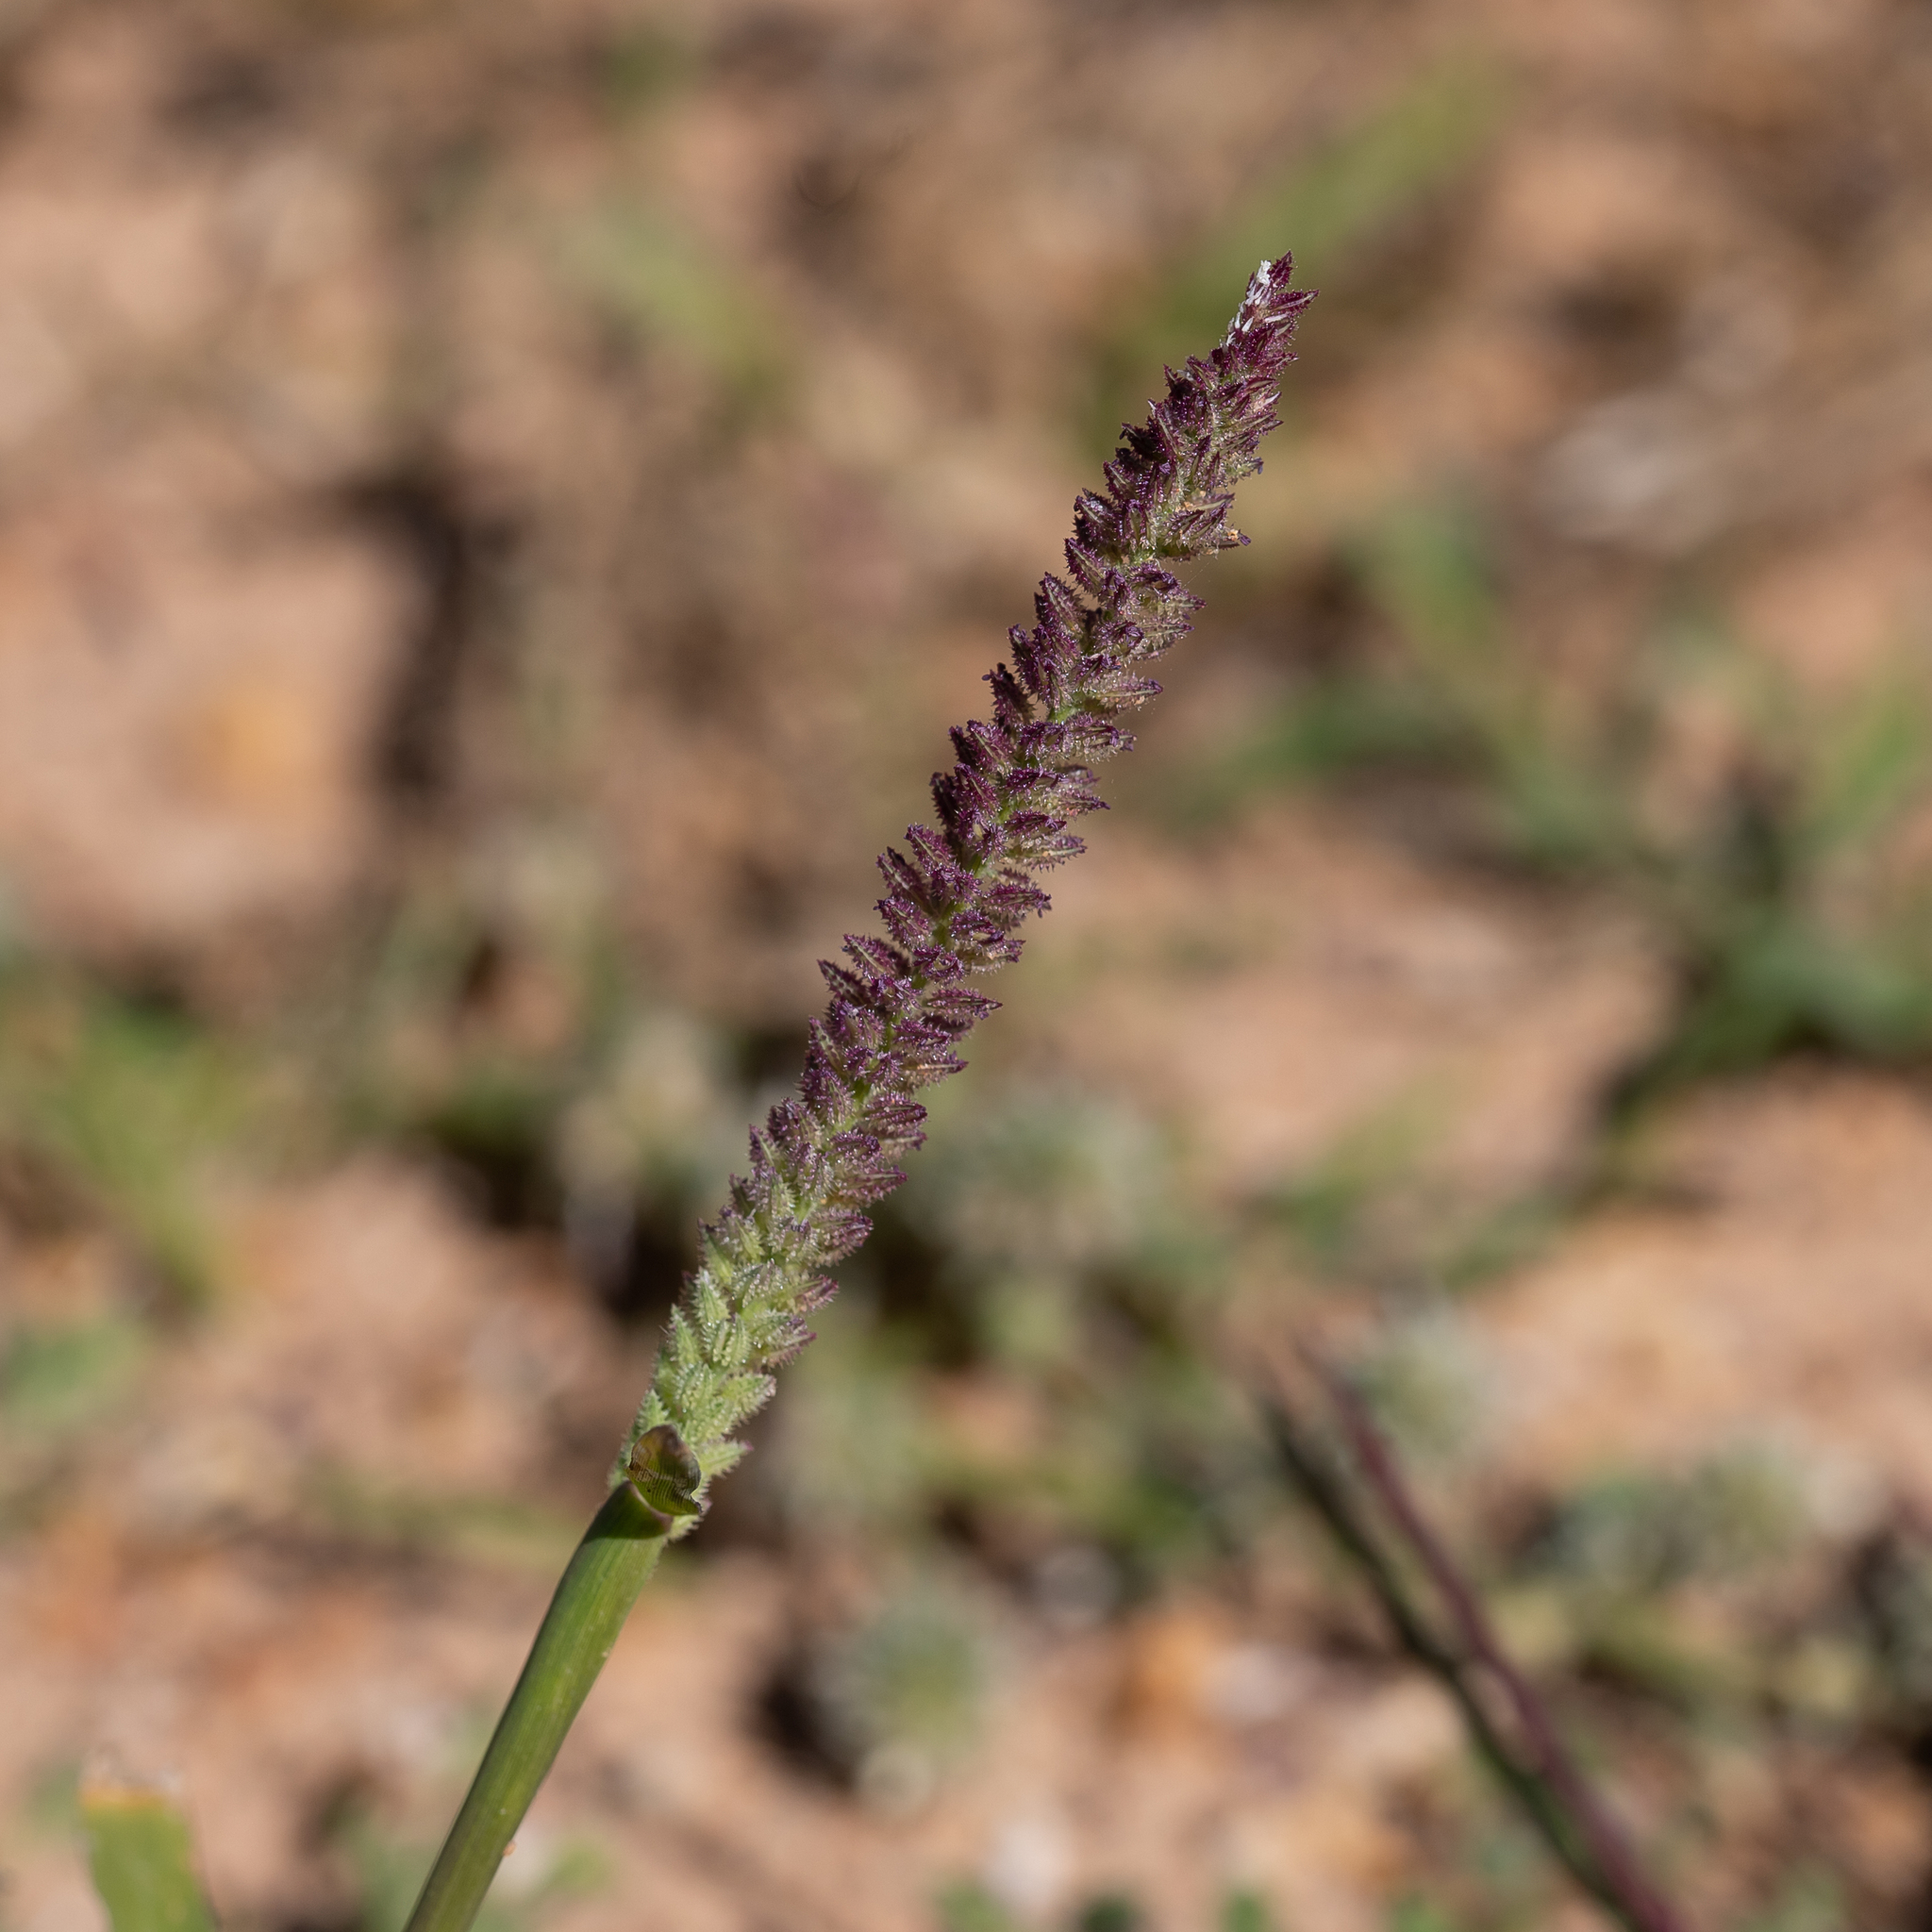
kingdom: Plantae
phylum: Tracheophyta
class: Liliopsida
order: Poales
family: Poaceae
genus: Tragus
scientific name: Tragus australianus
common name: Australian bur-grass
